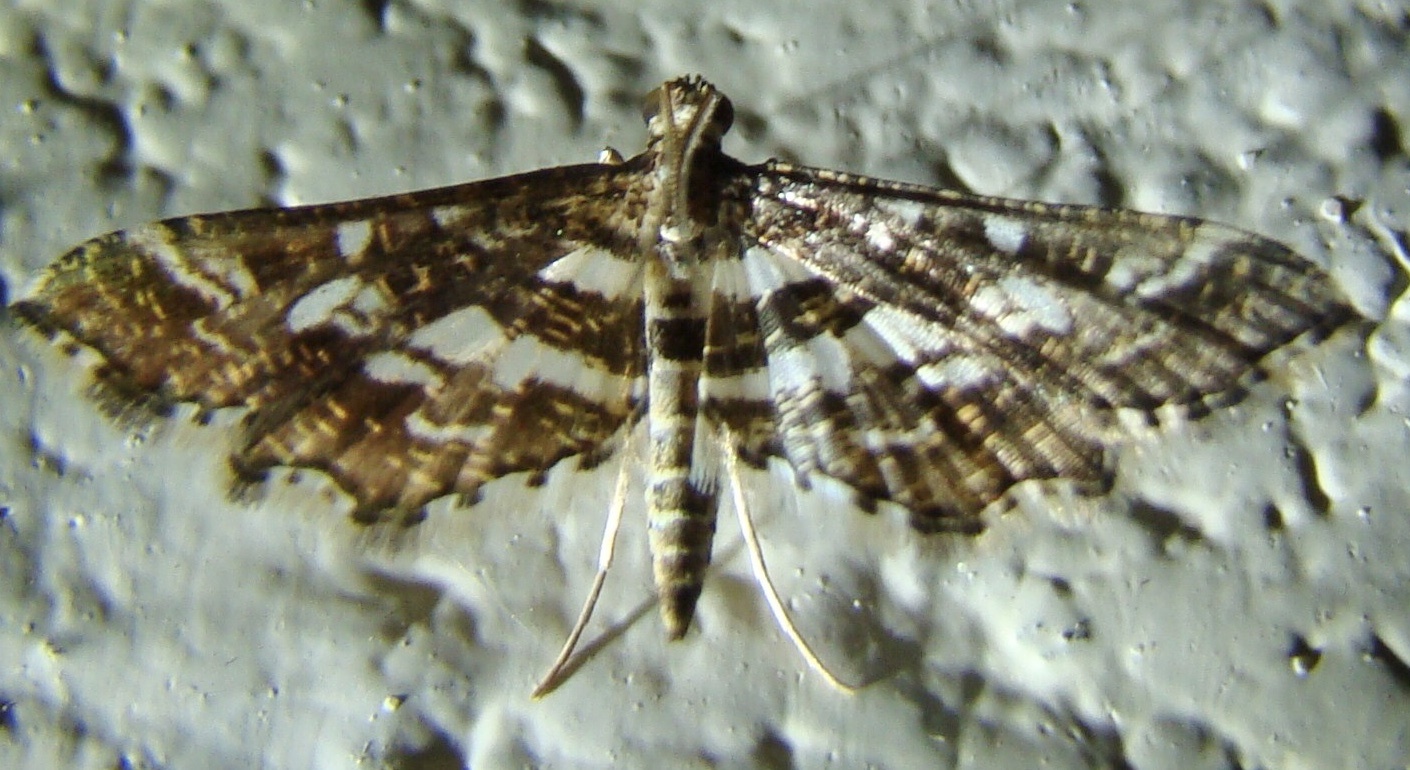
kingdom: Animalia
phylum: Arthropoda
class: Insecta
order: Lepidoptera
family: Crambidae
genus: Diasemiopsis
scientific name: Diasemiopsis ramburialis
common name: Vagrant china-mark
